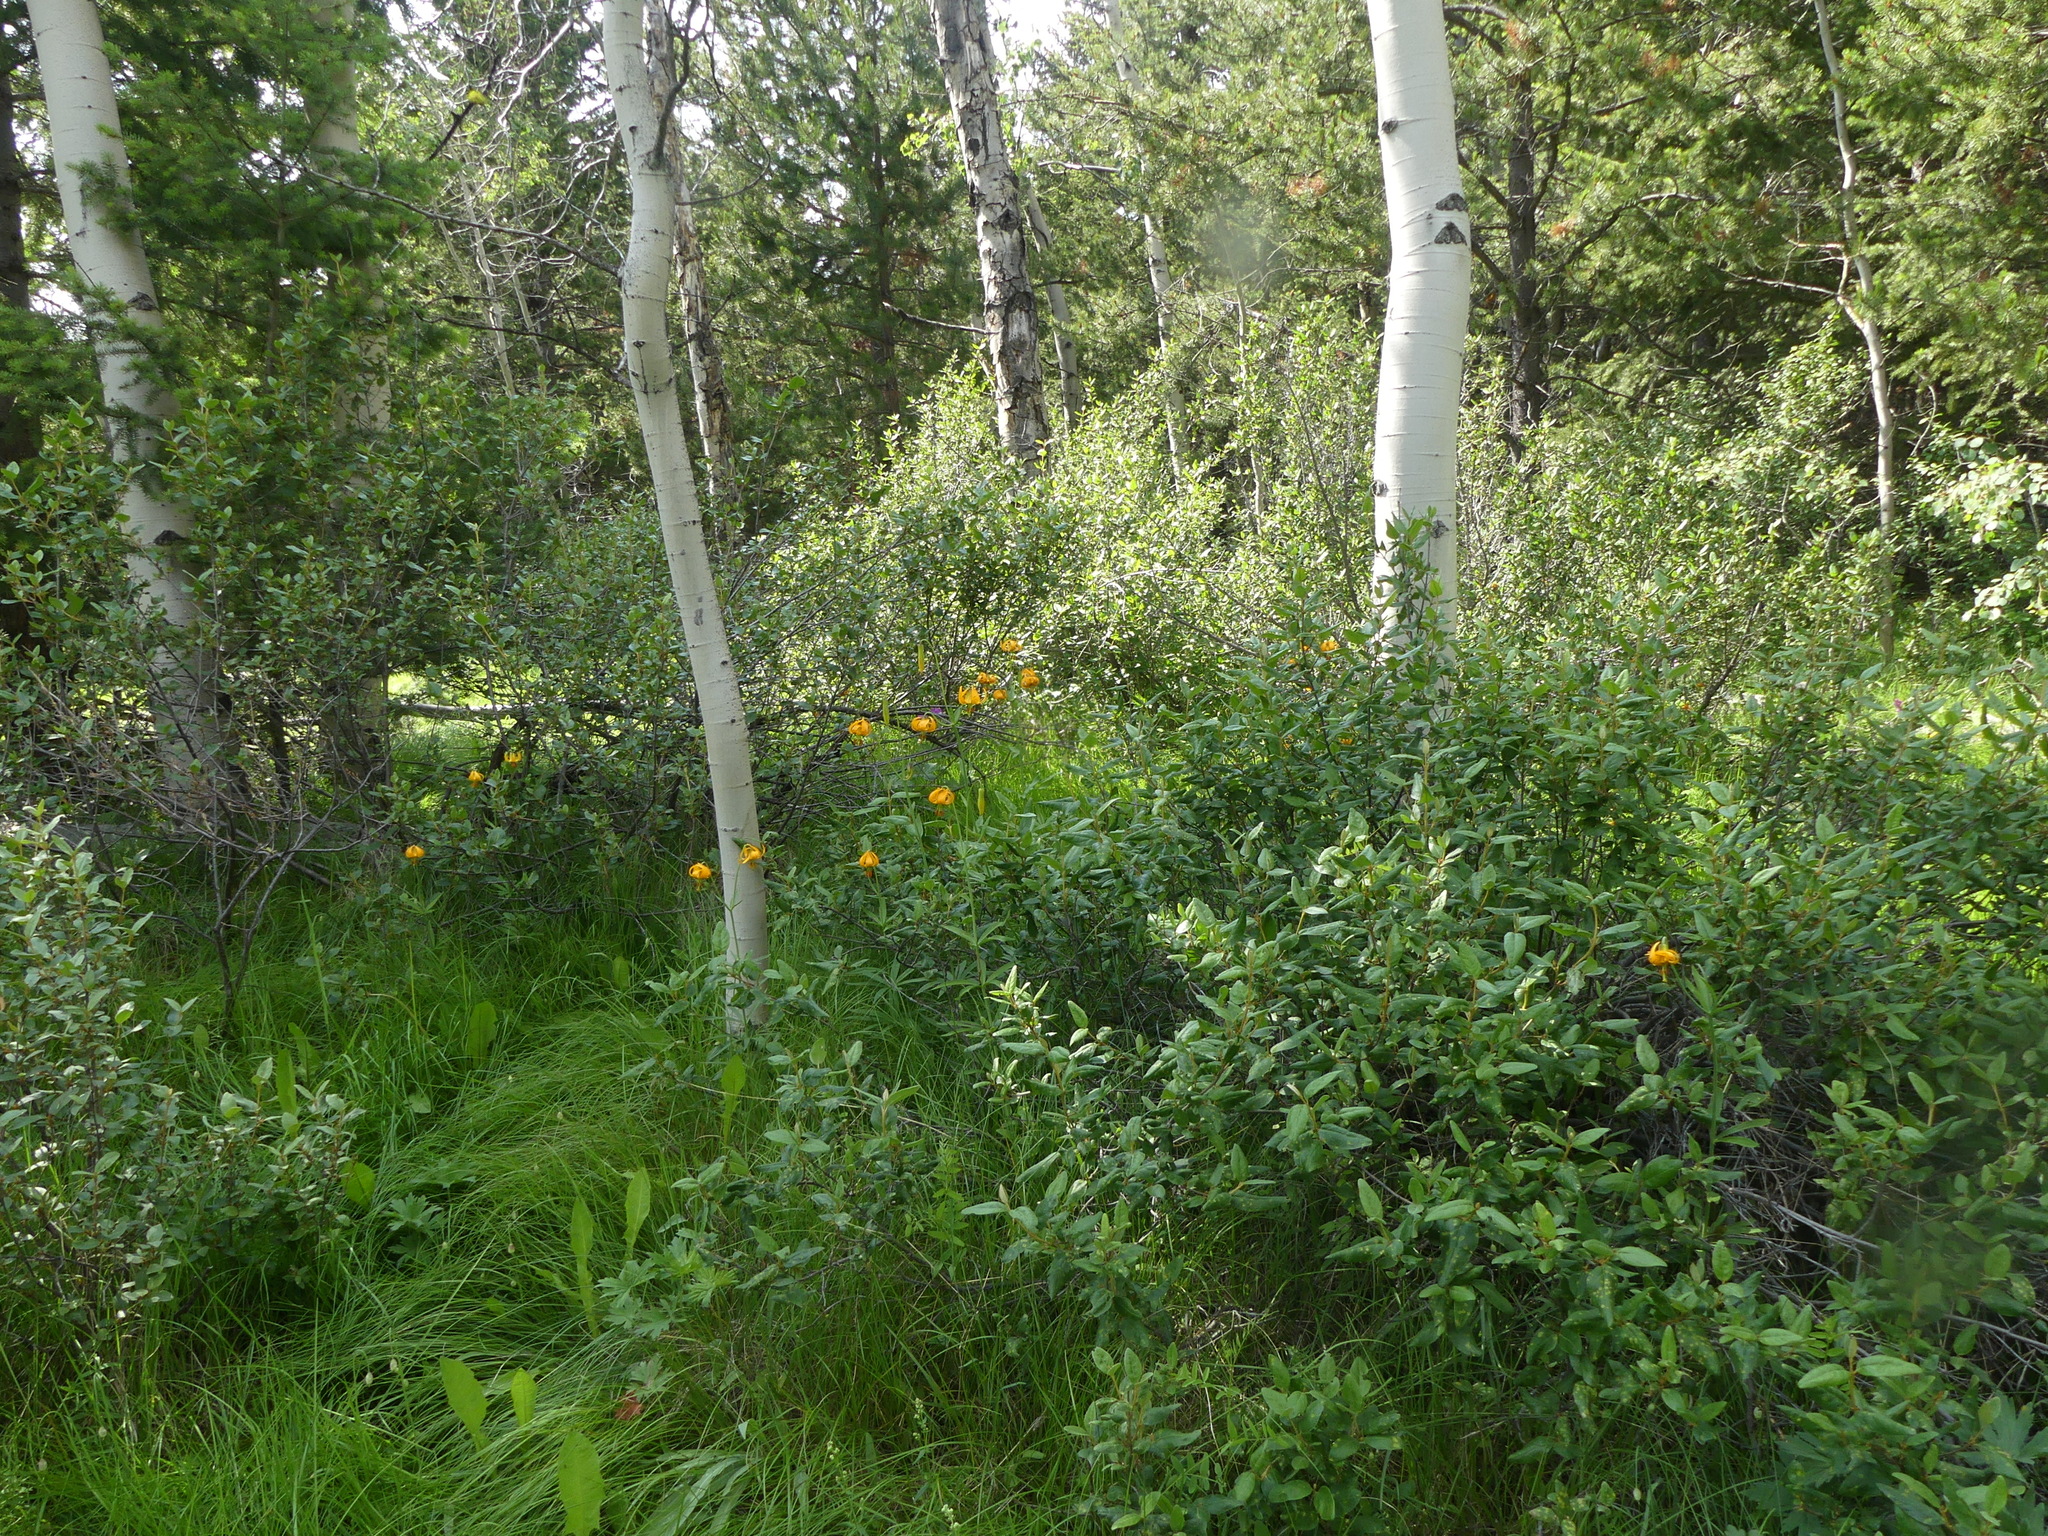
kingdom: Plantae
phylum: Tracheophyta
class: Magnoliopsida
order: Rosales
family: Elaeagnaceae
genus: Shepherdia
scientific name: Shepherdia canadensis
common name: Soapberry
